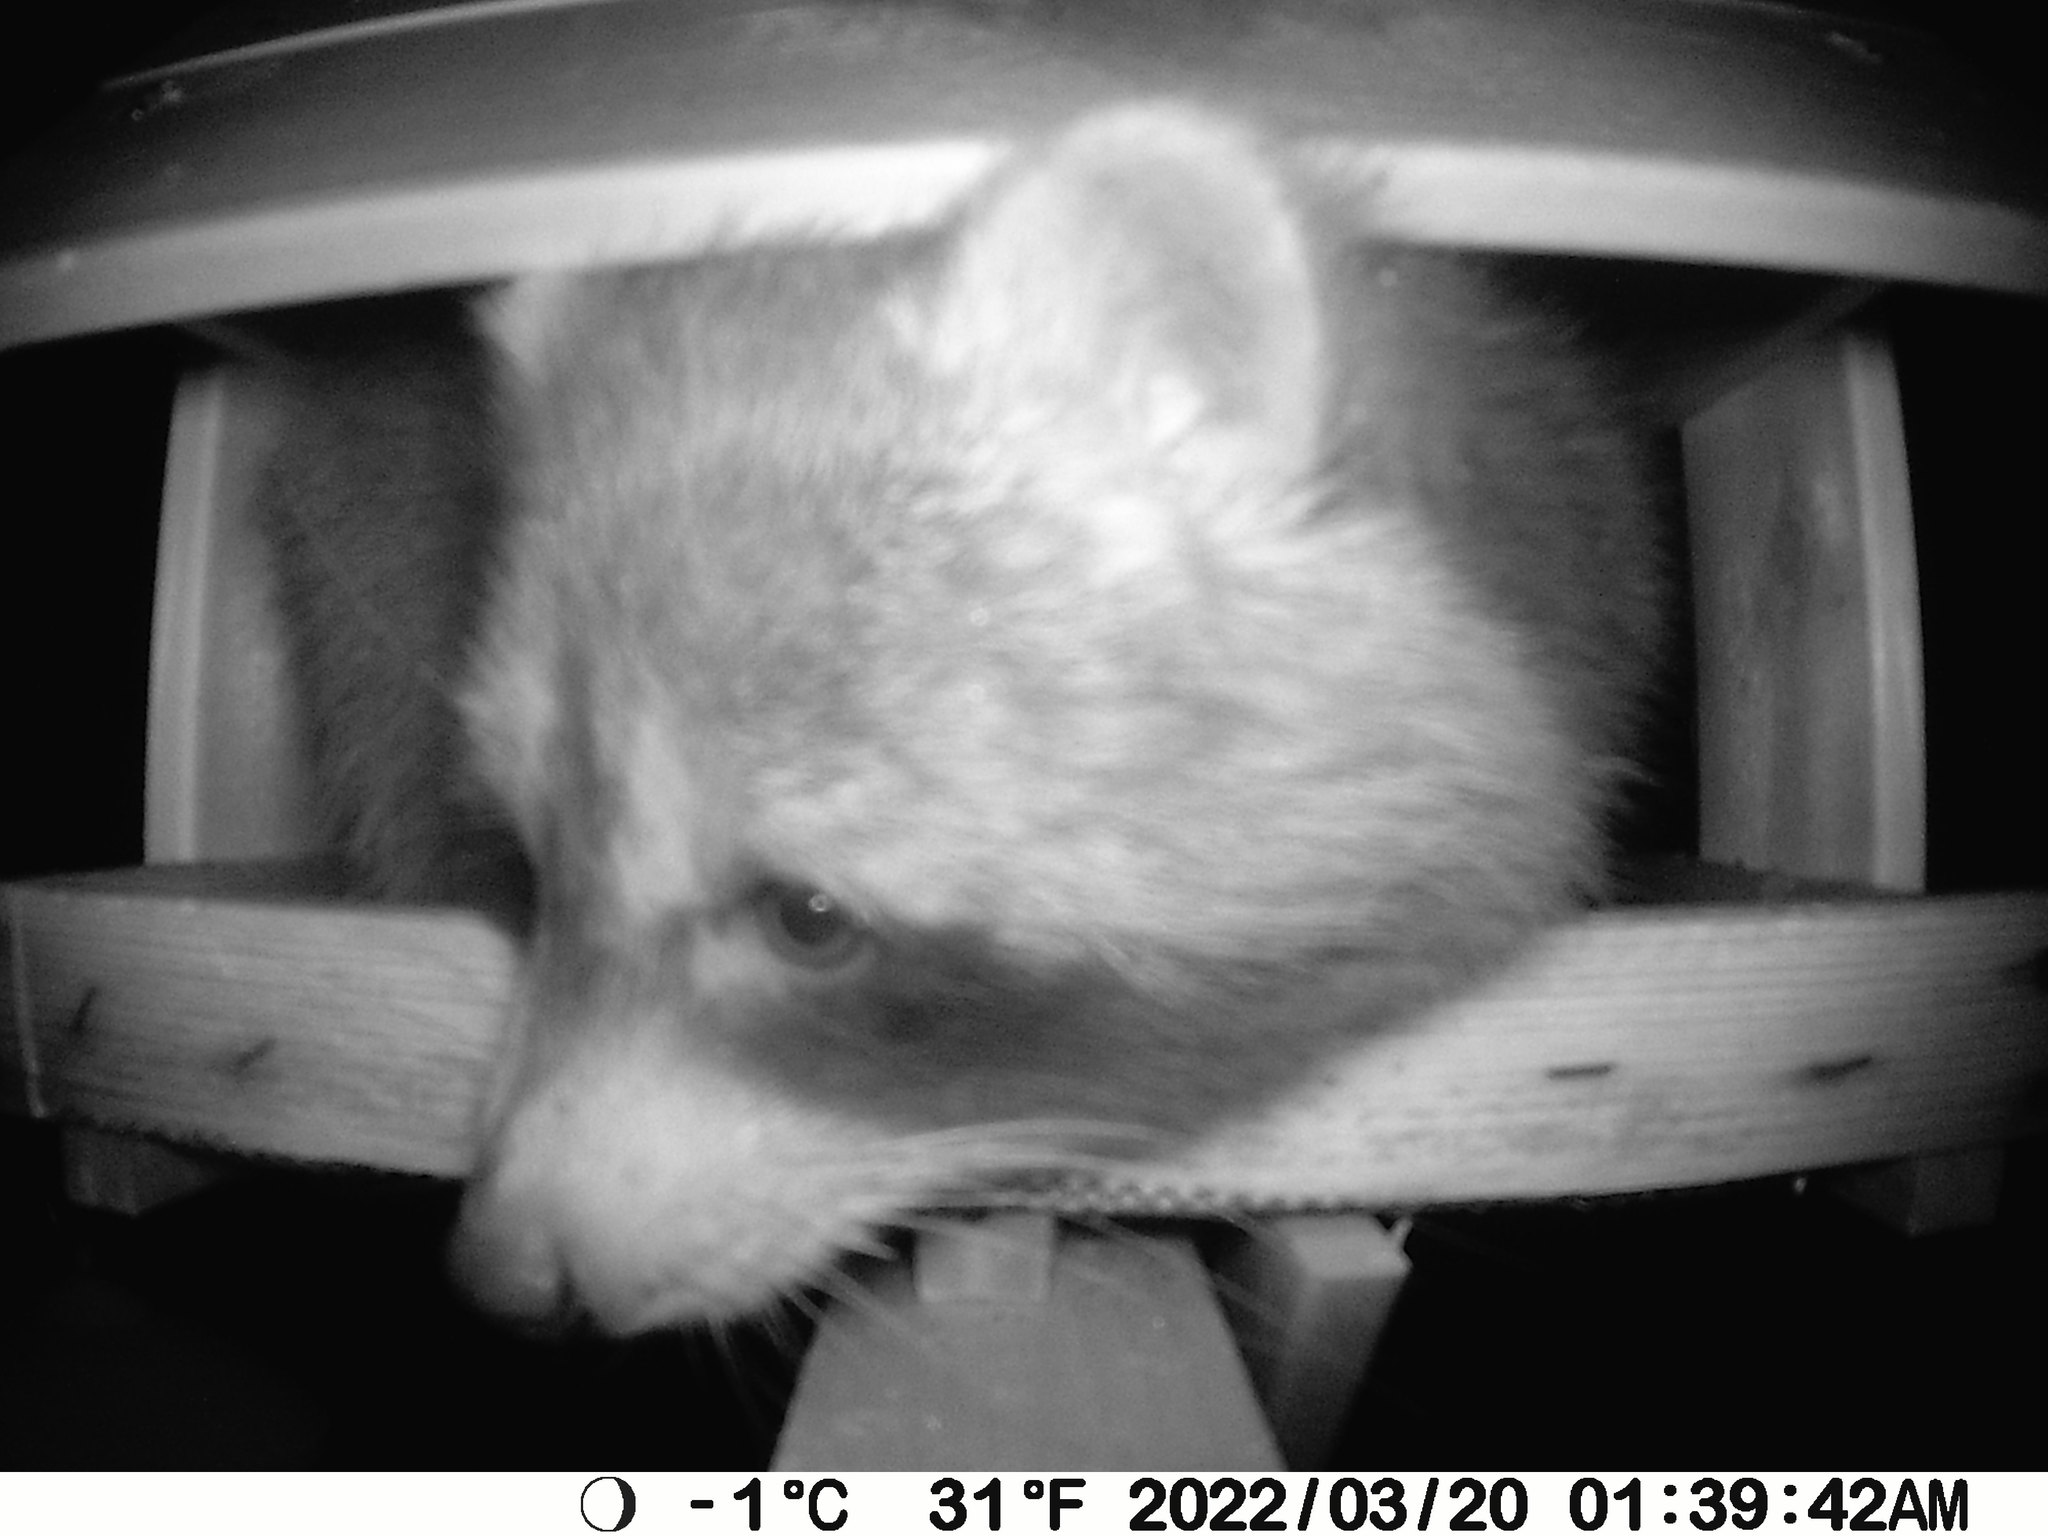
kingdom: Animalia
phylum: Chordata
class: Mammalia
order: Carnivora
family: Procyonidae
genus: Procyon
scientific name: Procyon lotor
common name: Raccoon
